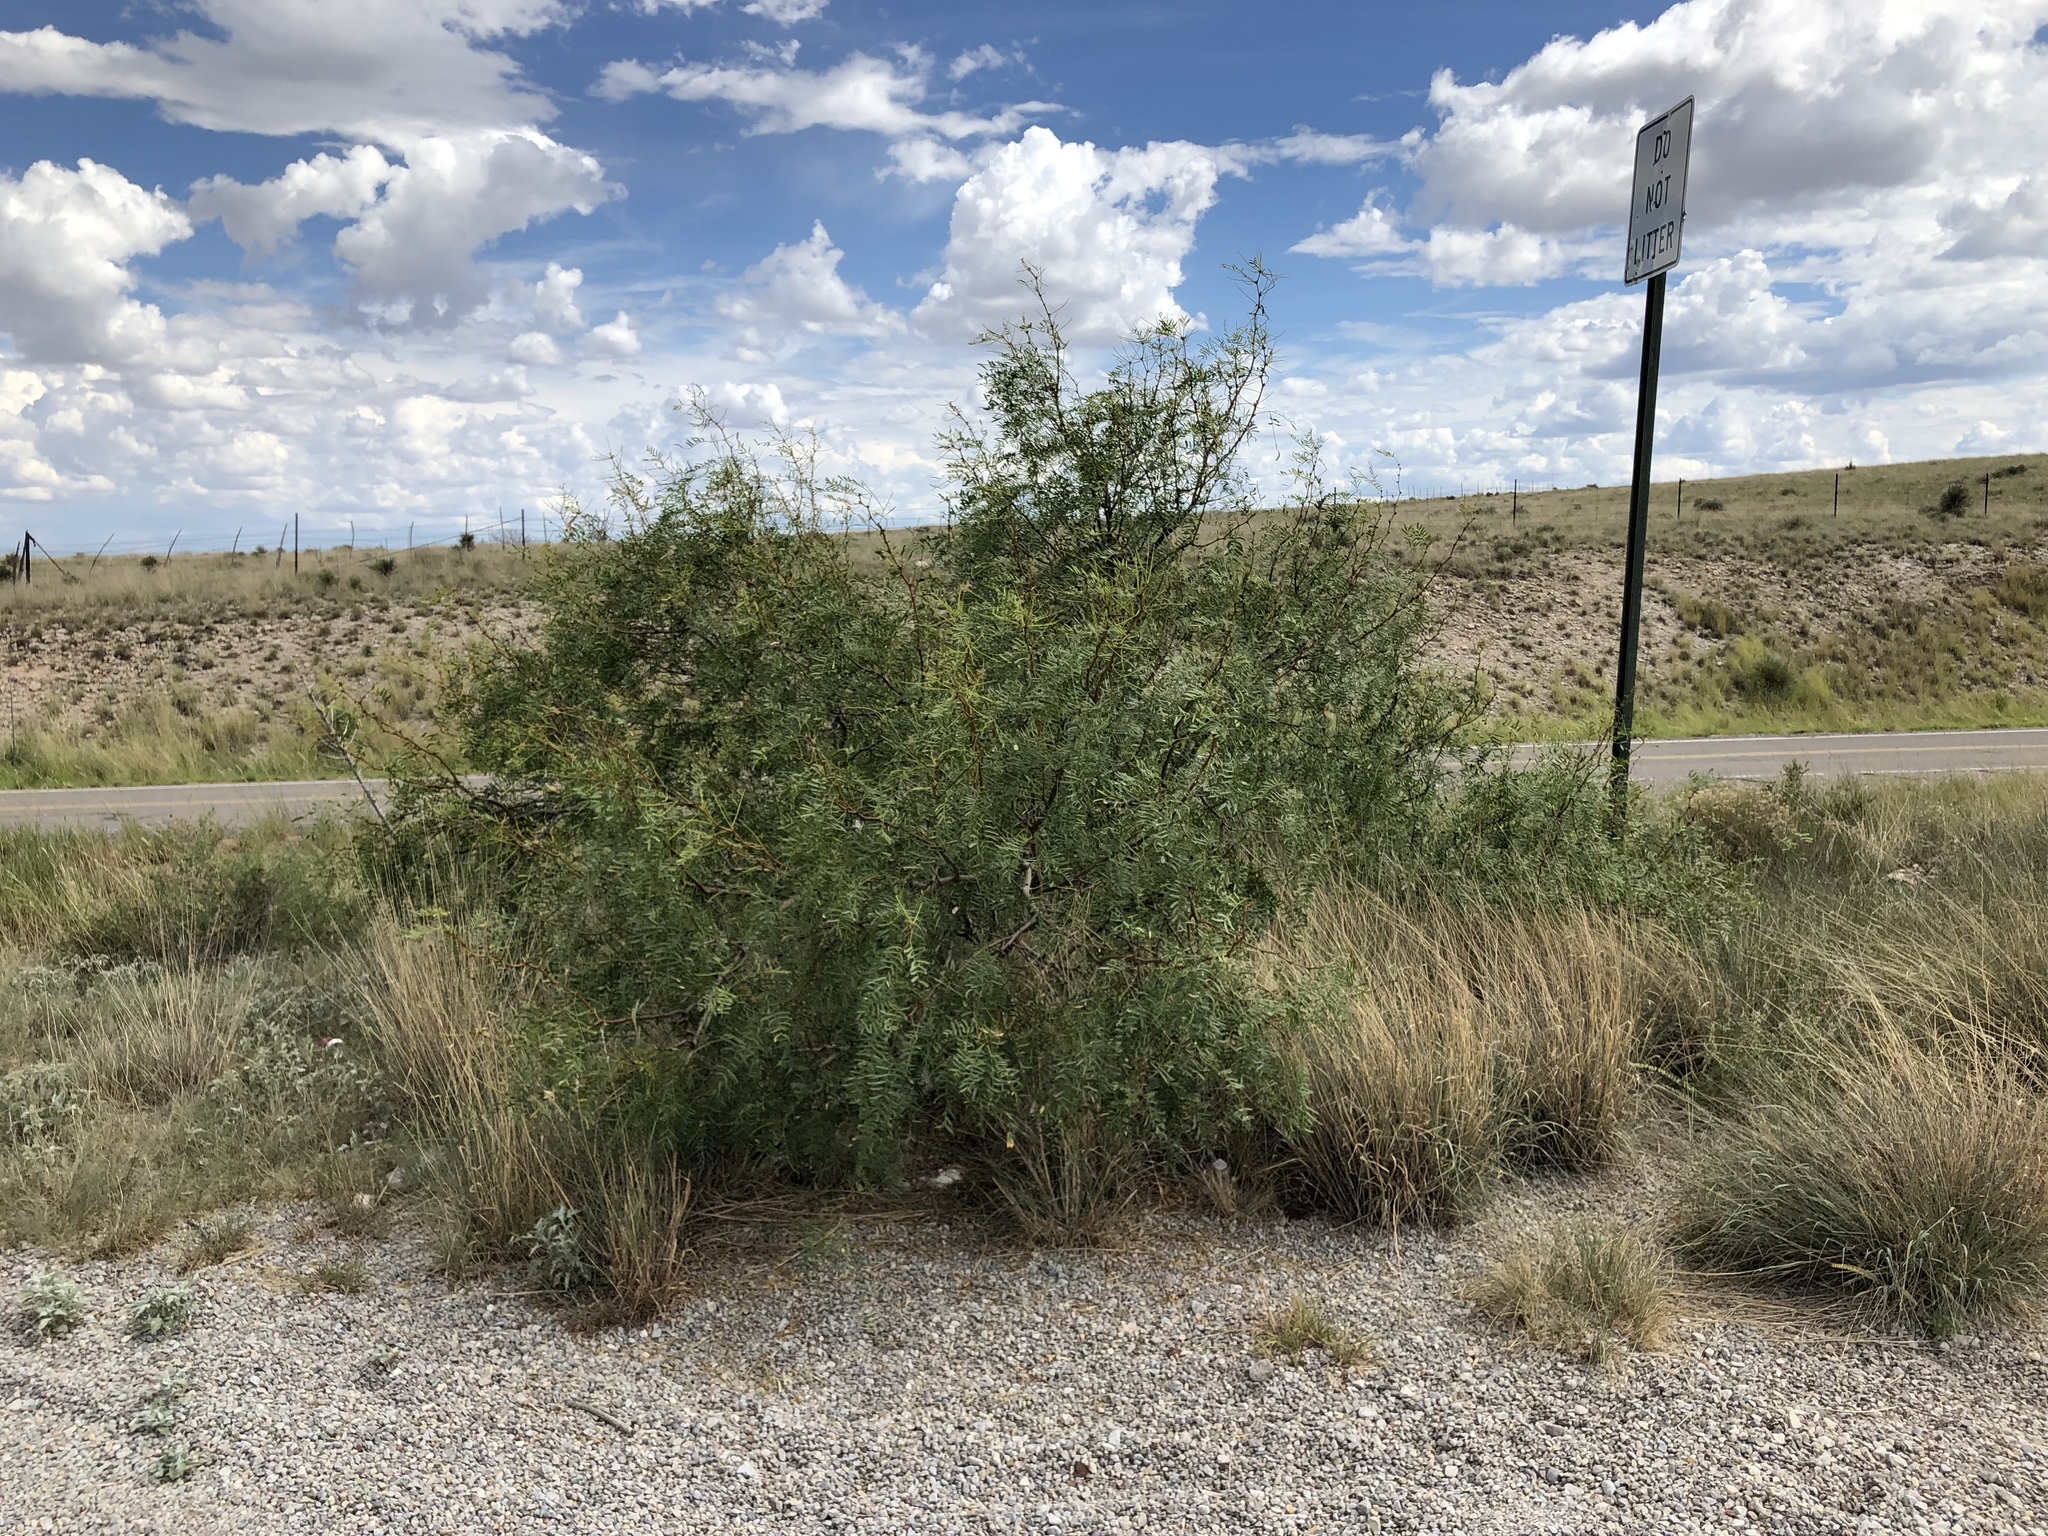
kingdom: Plantae
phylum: Tracheophyta
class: Magnoliopsida
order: Fabales
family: Fabaceae
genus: Prosopis
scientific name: Prosopis glandulosa
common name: Honey mesquite
